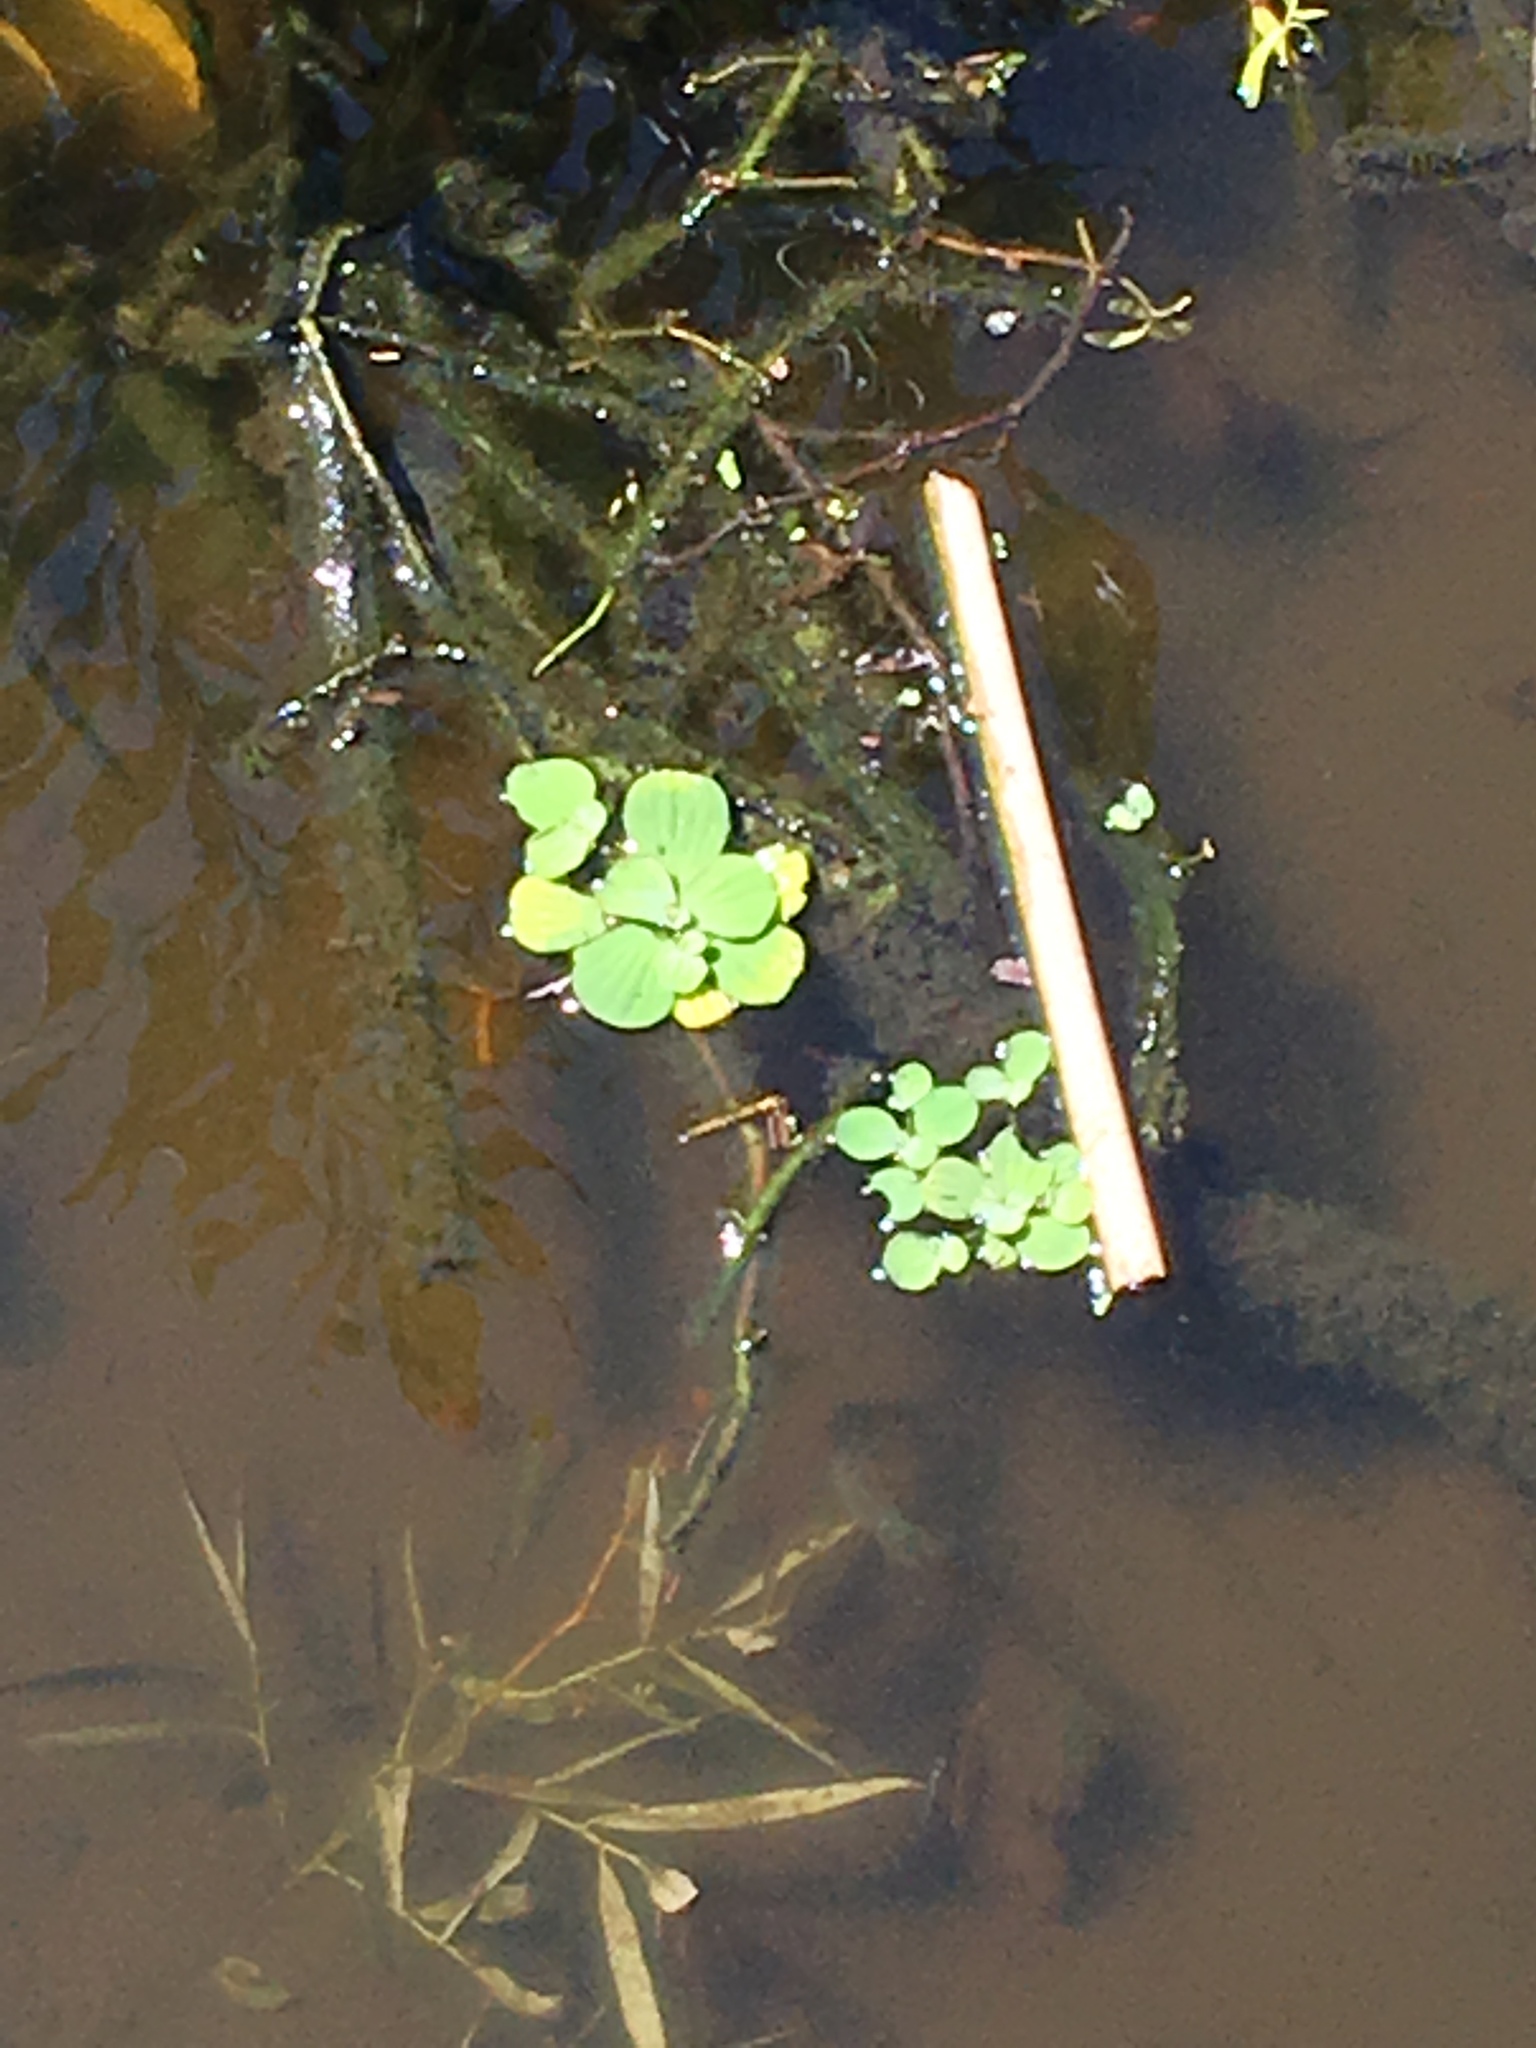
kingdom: Plantae
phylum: Tracheophyta
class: Liliopsida
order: Alismatales
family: Araceae
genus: Pistia
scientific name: Pistia stratiotes
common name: Water lettuce
